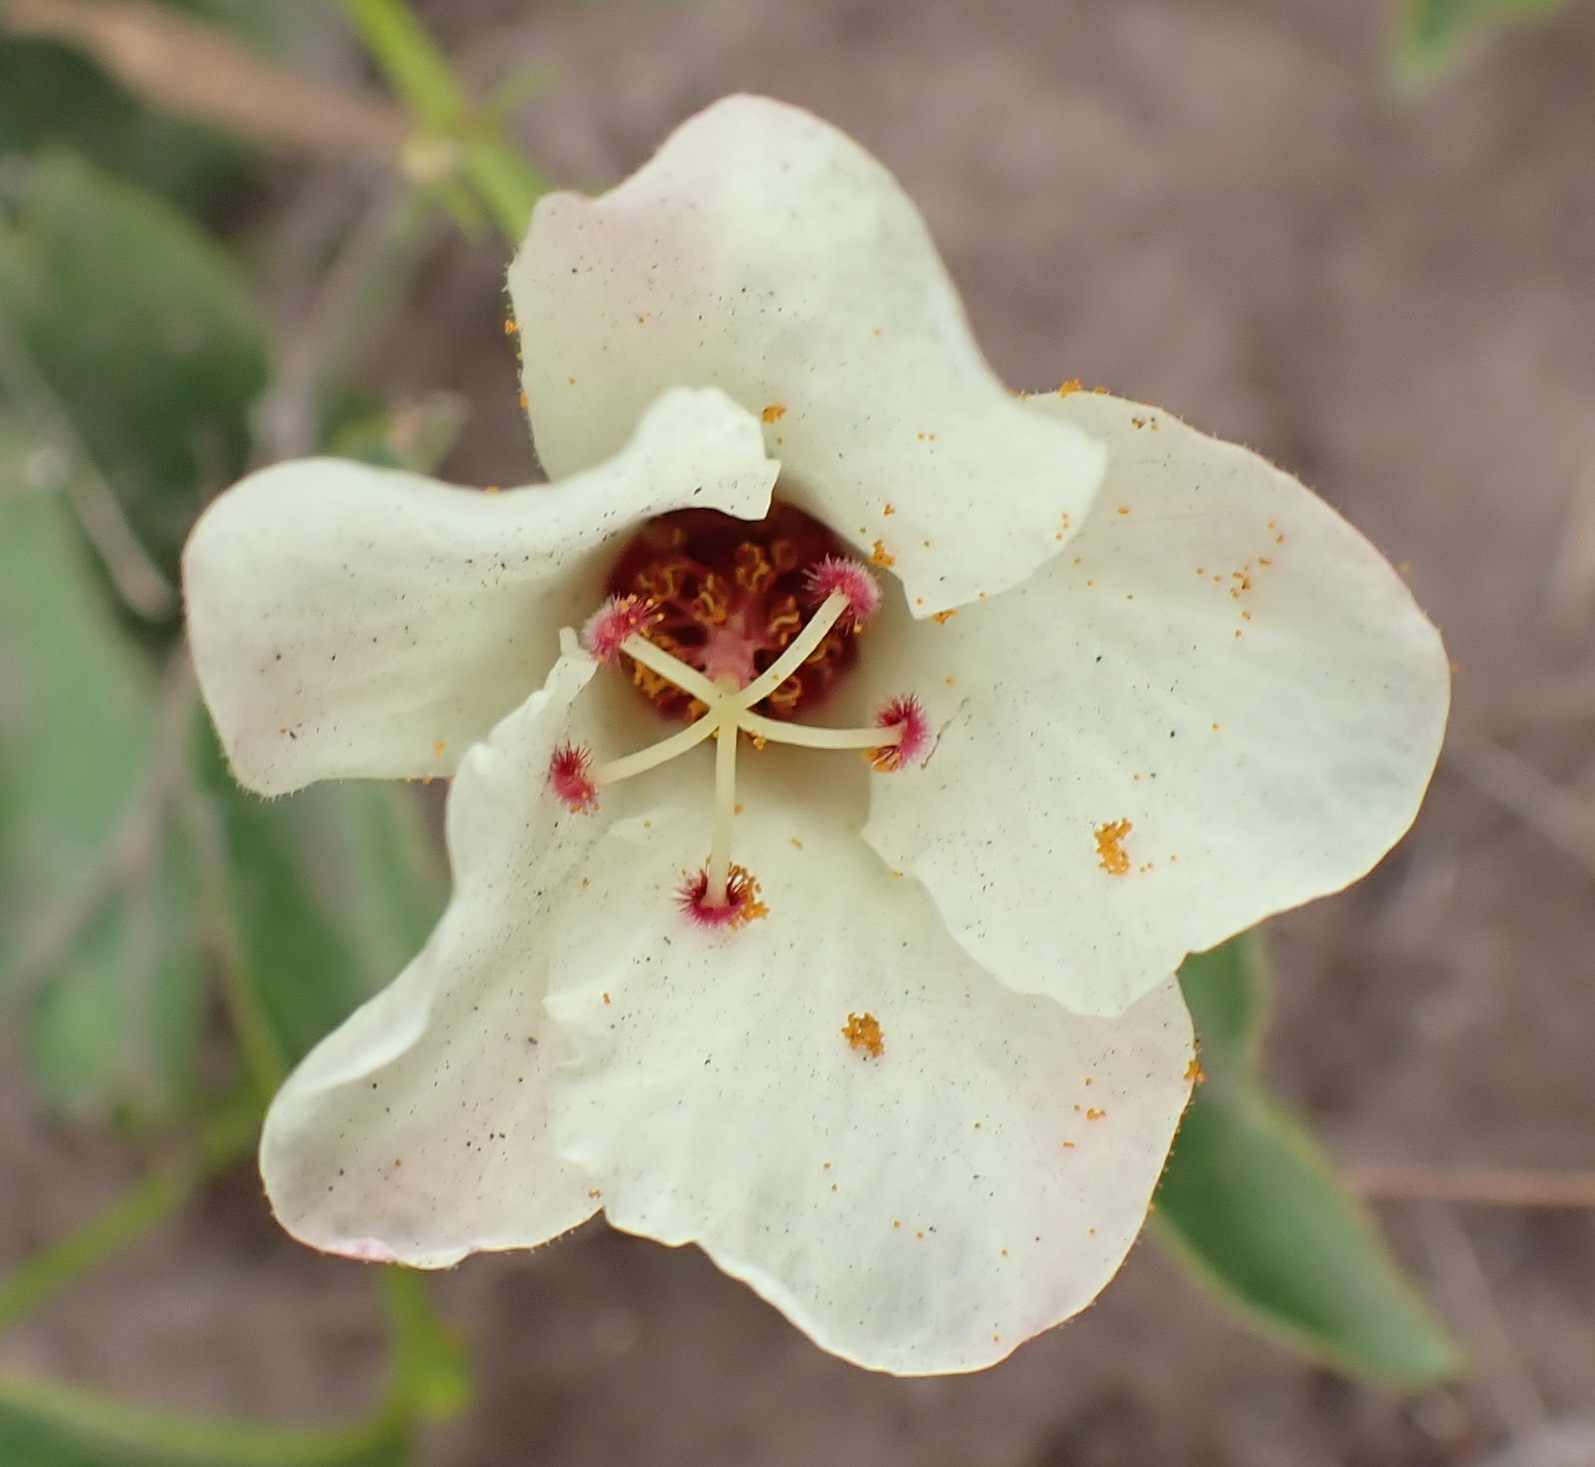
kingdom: Plantae
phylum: Tracheophyta
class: Magnoliopsida
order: Malvales
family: Malvaceae
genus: Hibiscus
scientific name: Hibiscus aethiopicus
